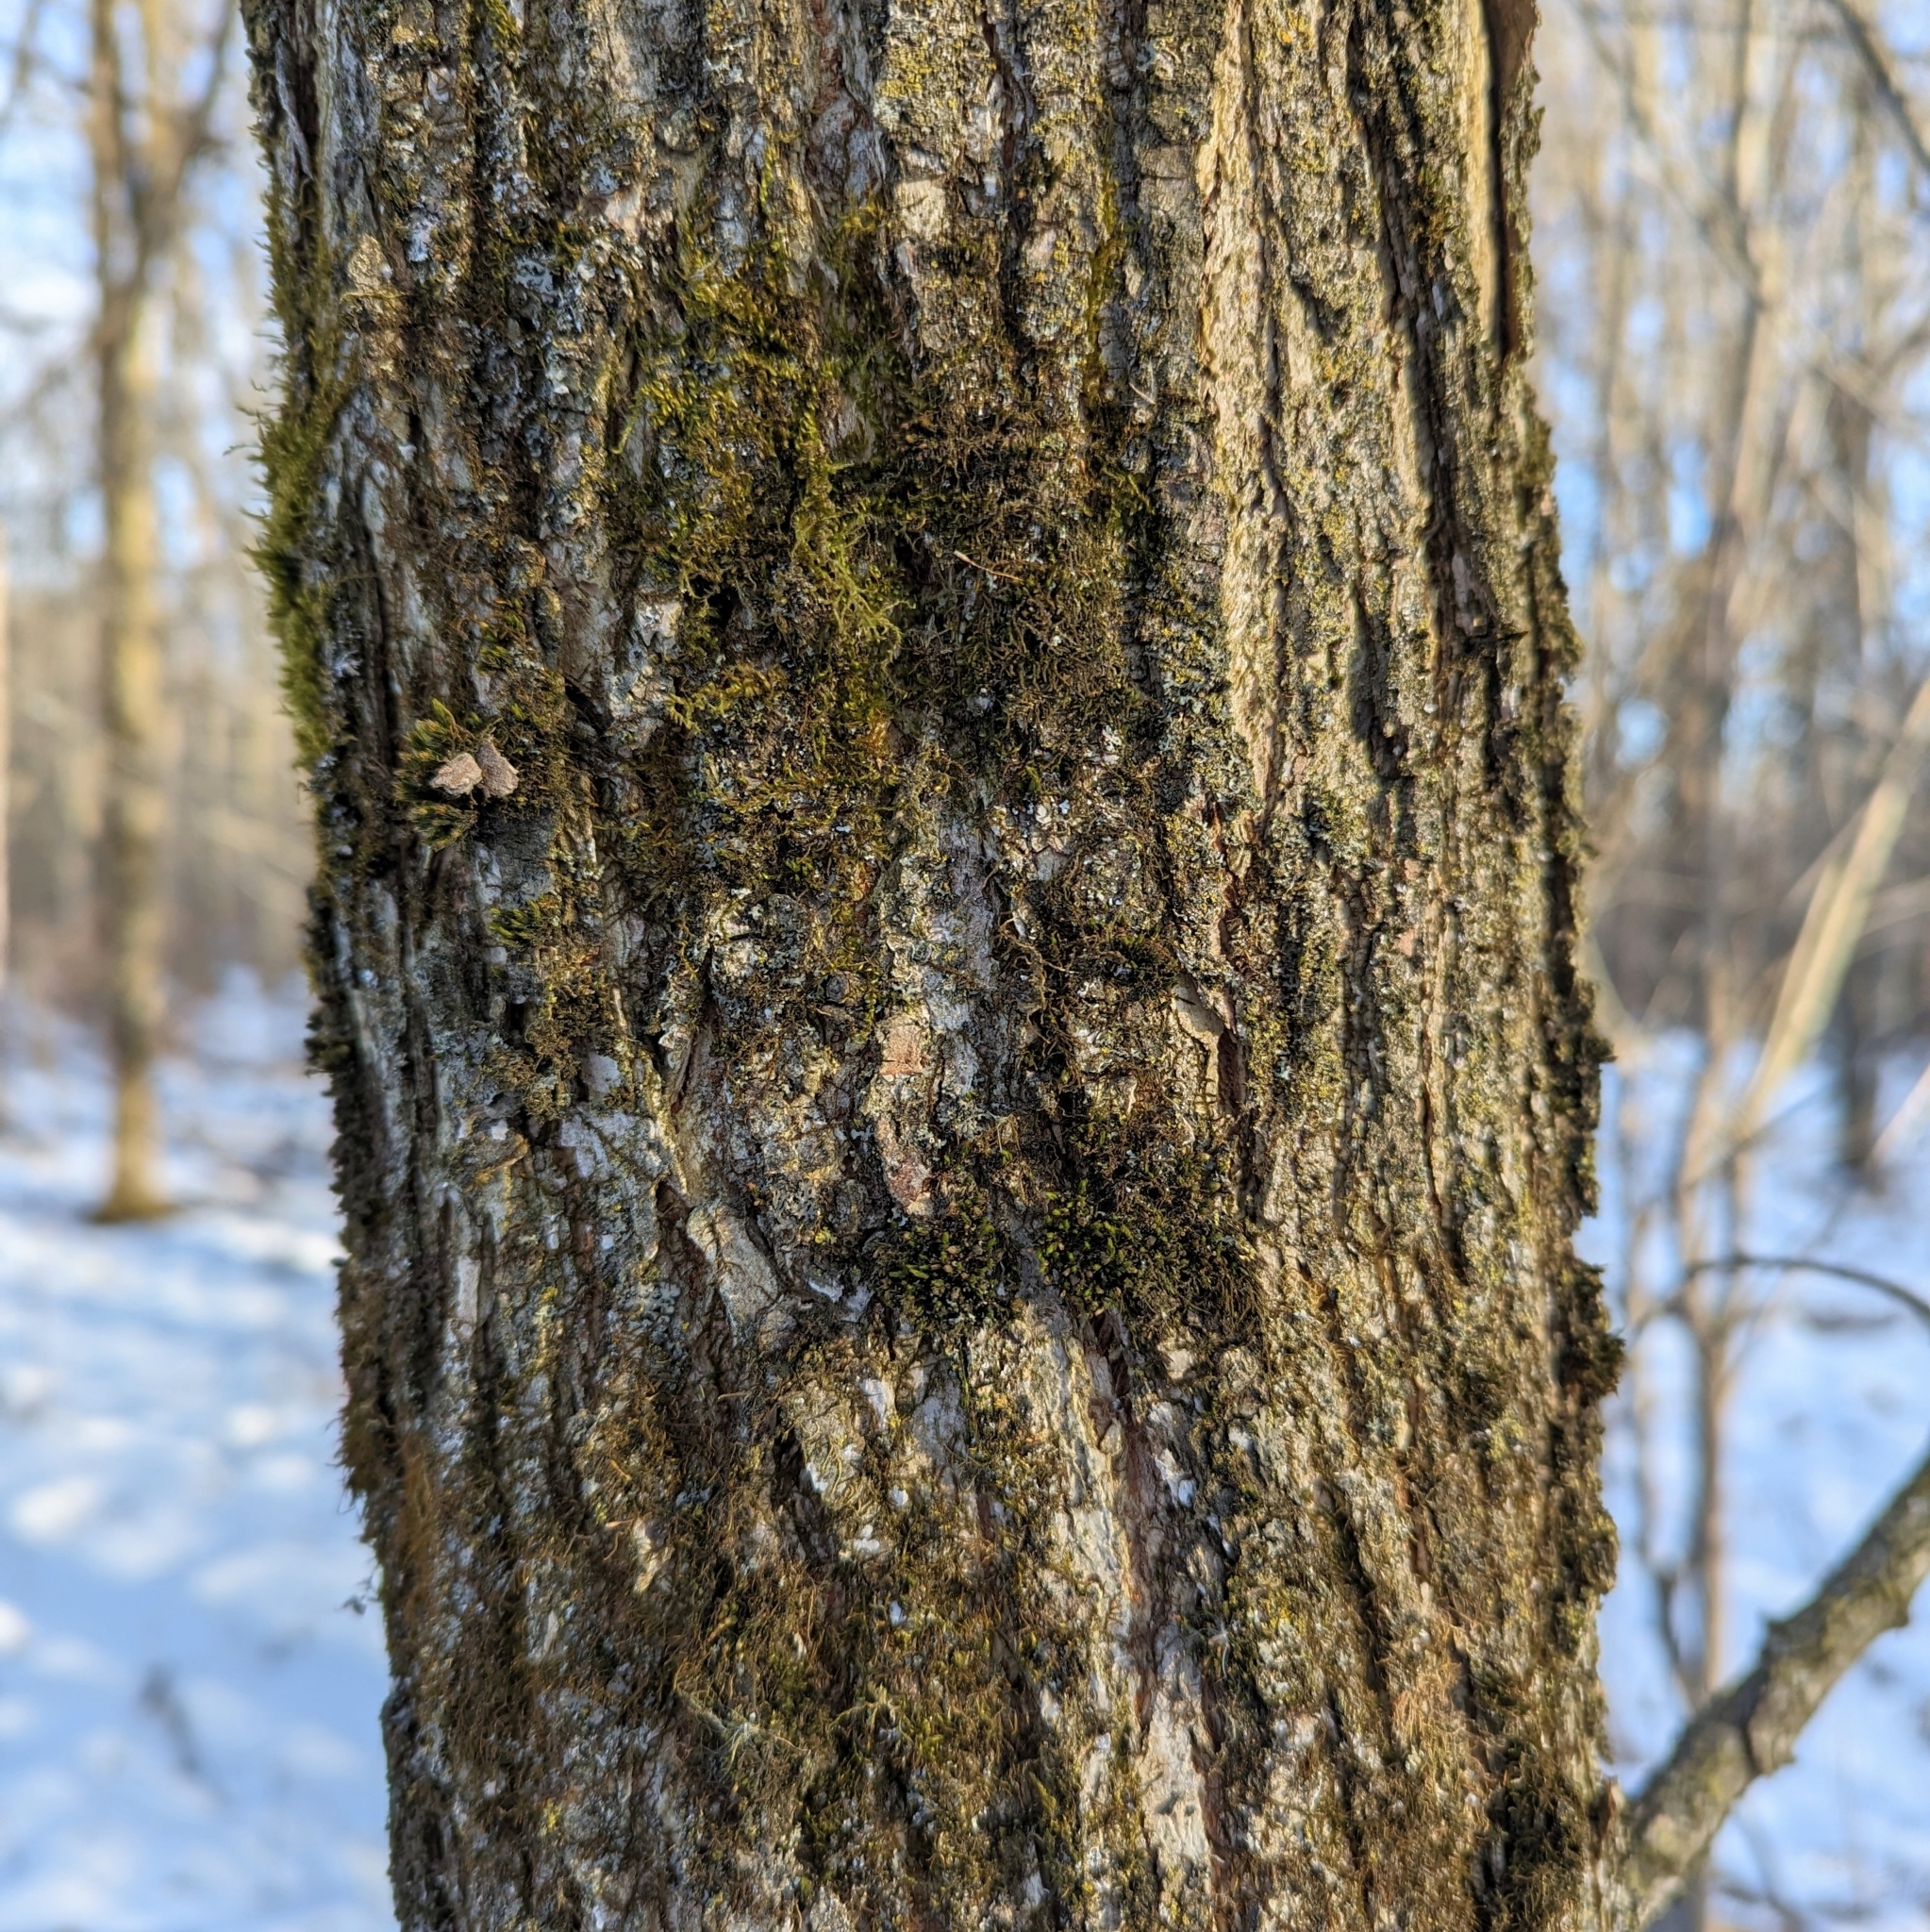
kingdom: Plantae
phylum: Tracheophyta
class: Magnoliopsida
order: Rosales
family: Ulmaceae
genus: Ulmus
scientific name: Ulmus
